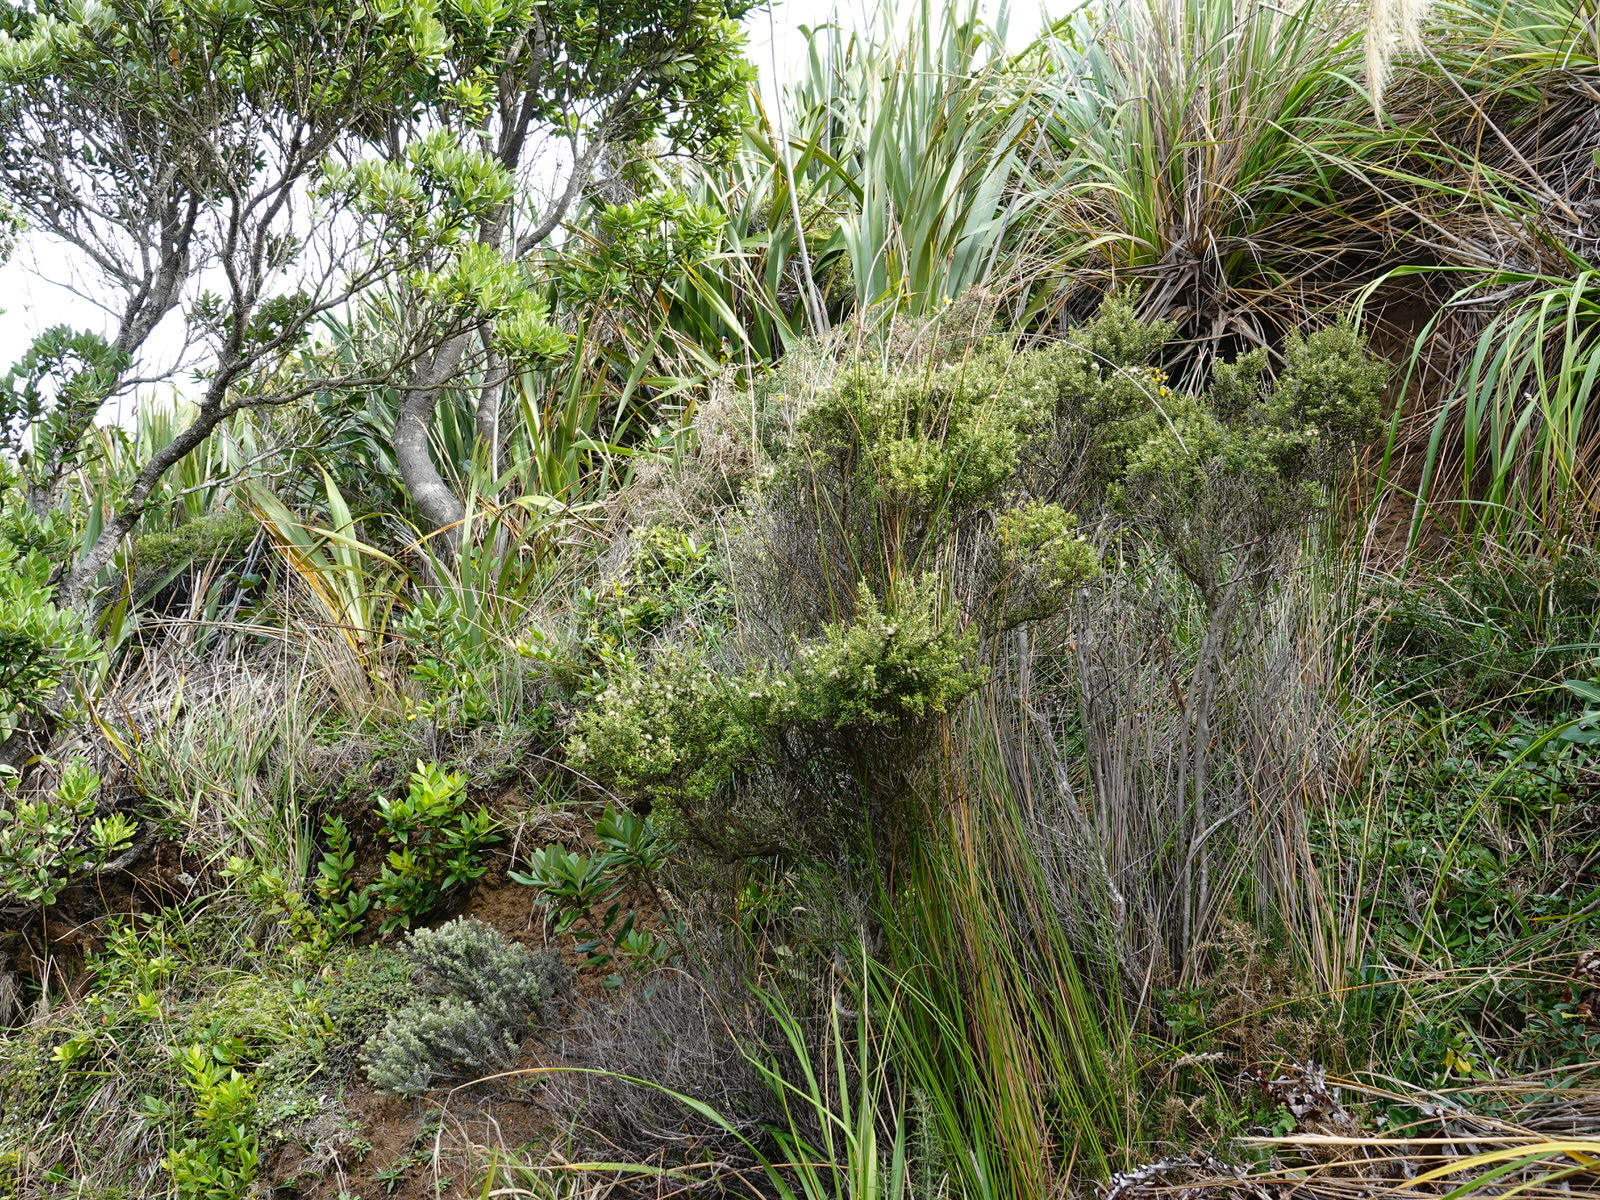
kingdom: Plantae
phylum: Tracheophyta
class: Magnoliopsida
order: Asterales
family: Asteraceae
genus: Olearia
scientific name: Olearia solandri
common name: Coastal daisybush
